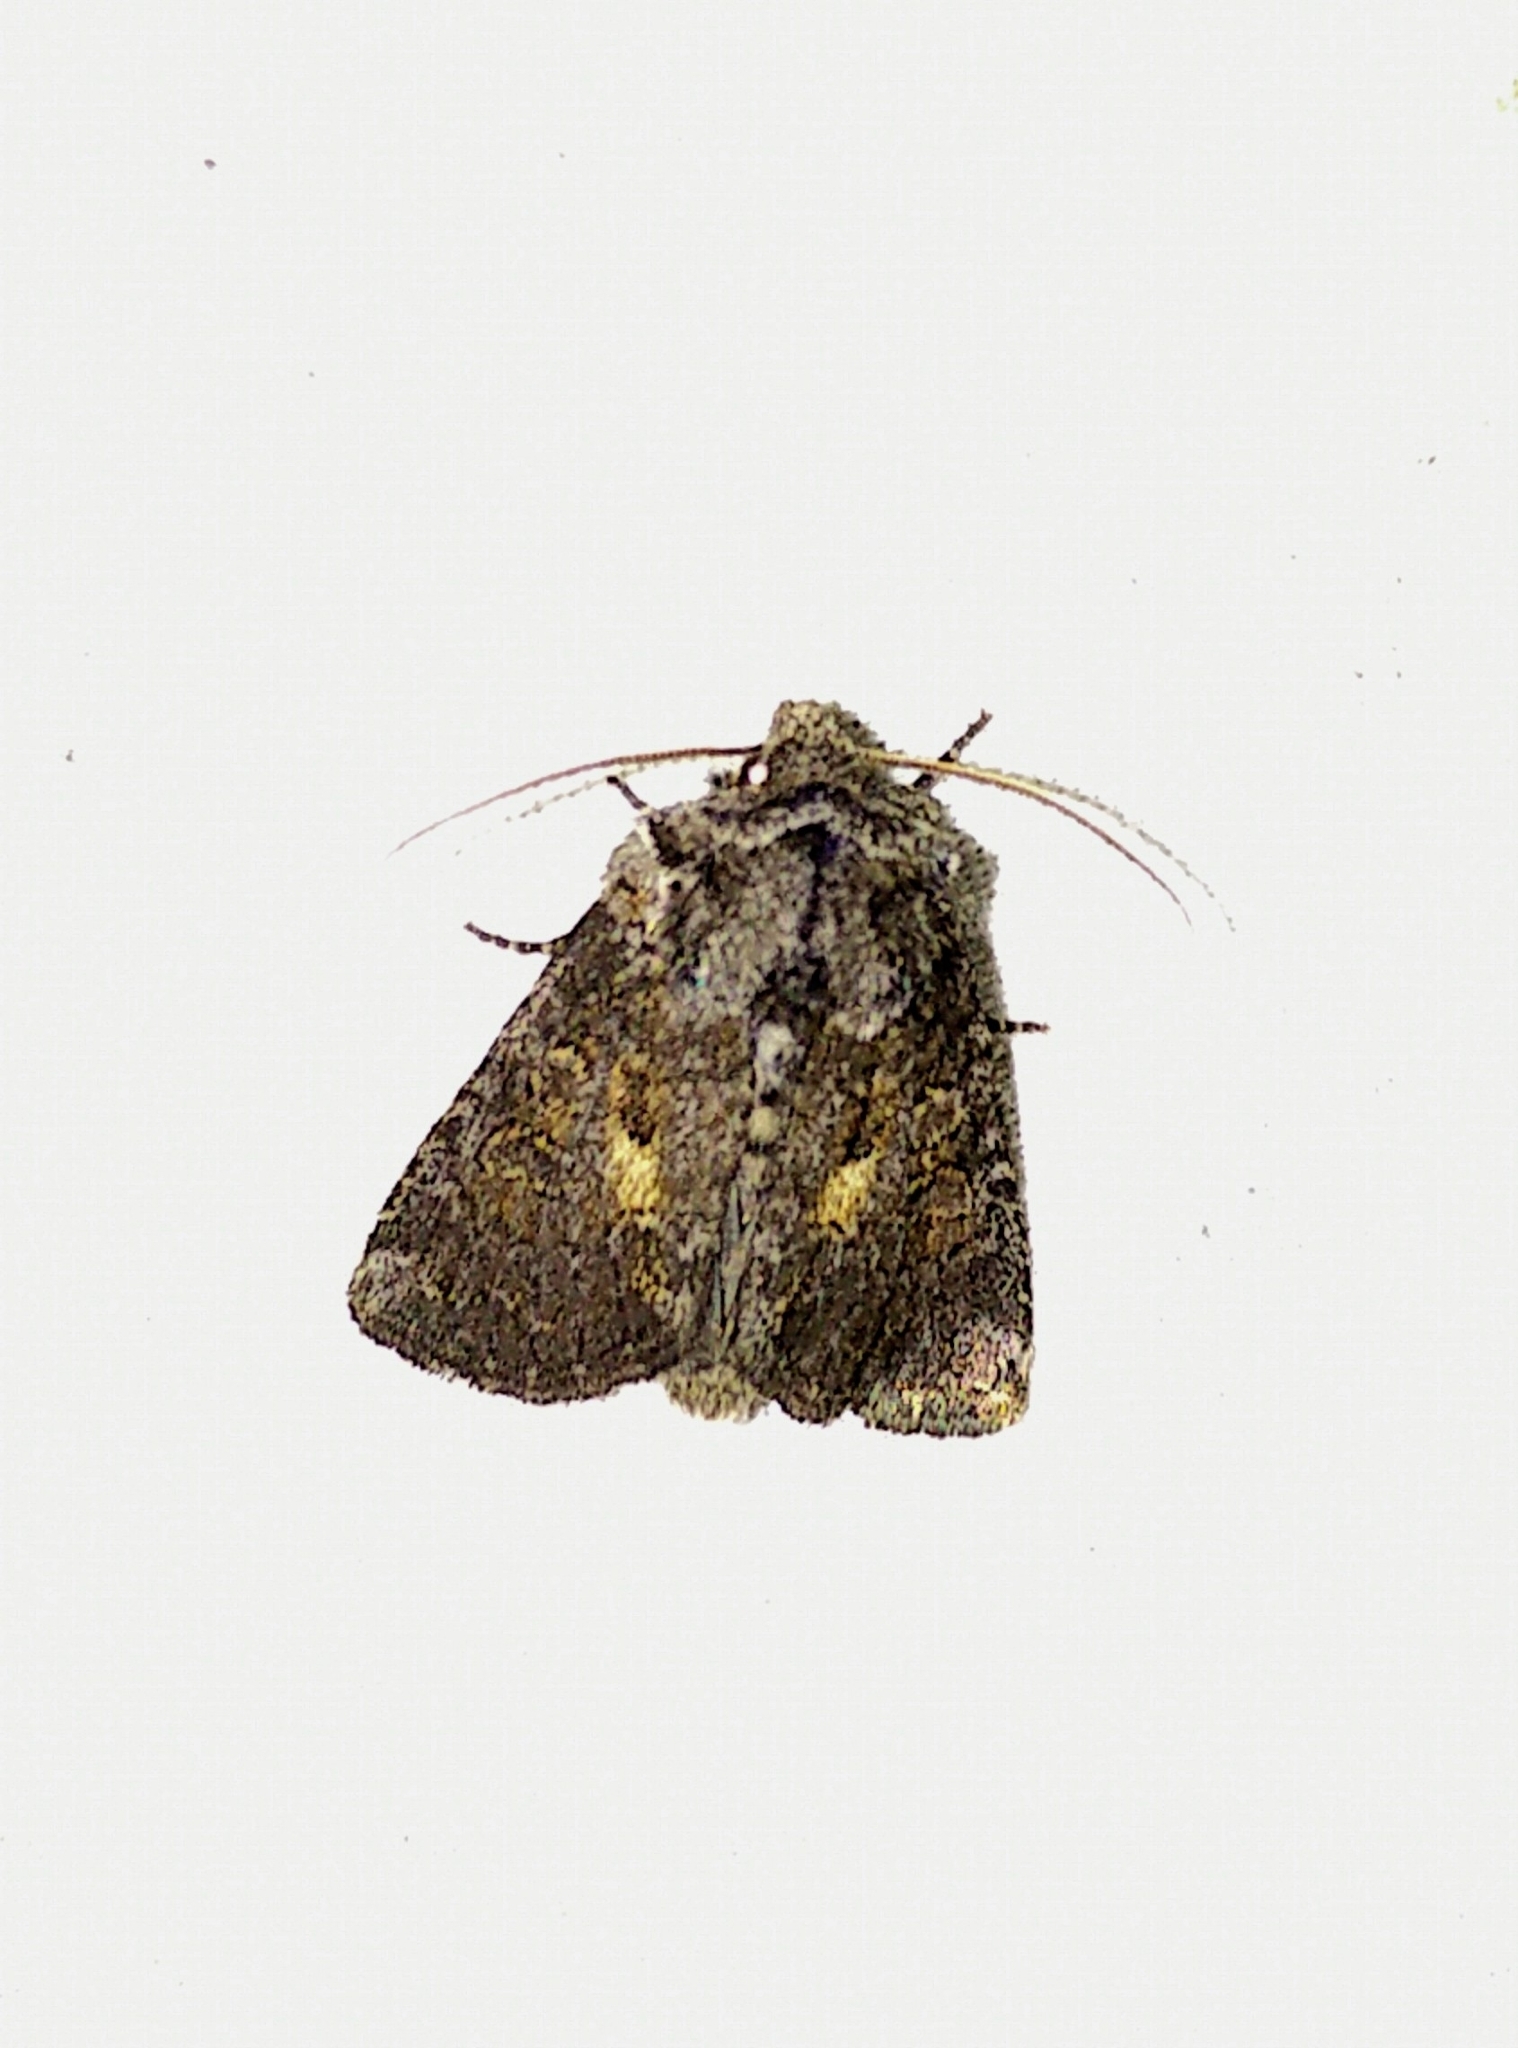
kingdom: Animalia
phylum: Arthropoda
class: Insecta
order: Lepidoptera
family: Noctuidae
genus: Orthodes
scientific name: Orthodes detracta
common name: Disparaged arches moth
